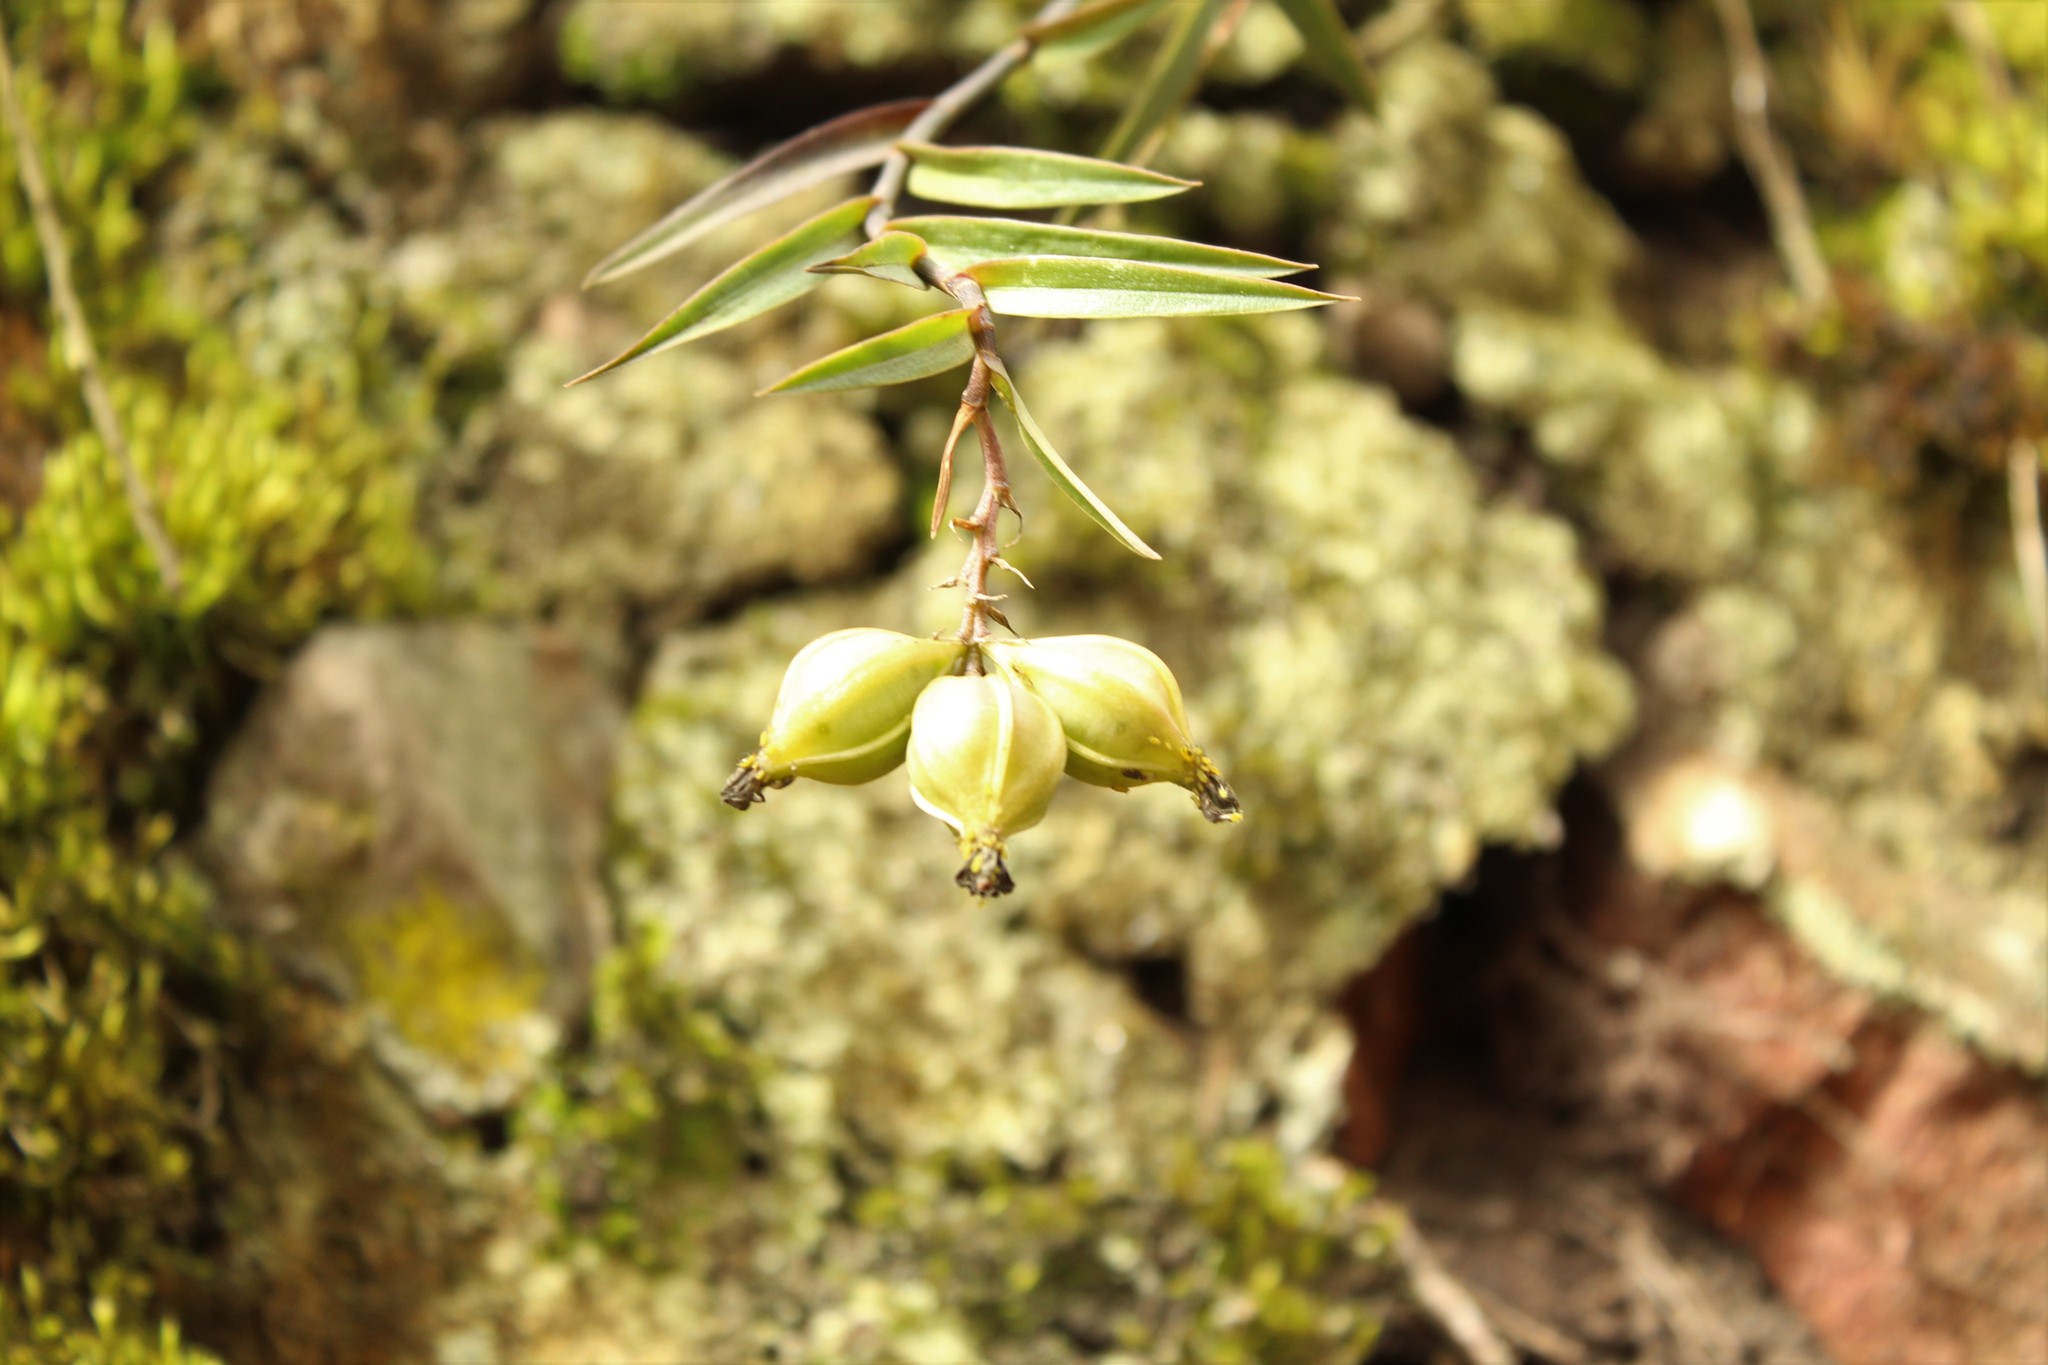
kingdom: Plantae
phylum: Tracheophyta
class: Liliopsida
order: Asparagales
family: Orchidaceae
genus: Epidendrum
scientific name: Epidendrum zipaquiranum
